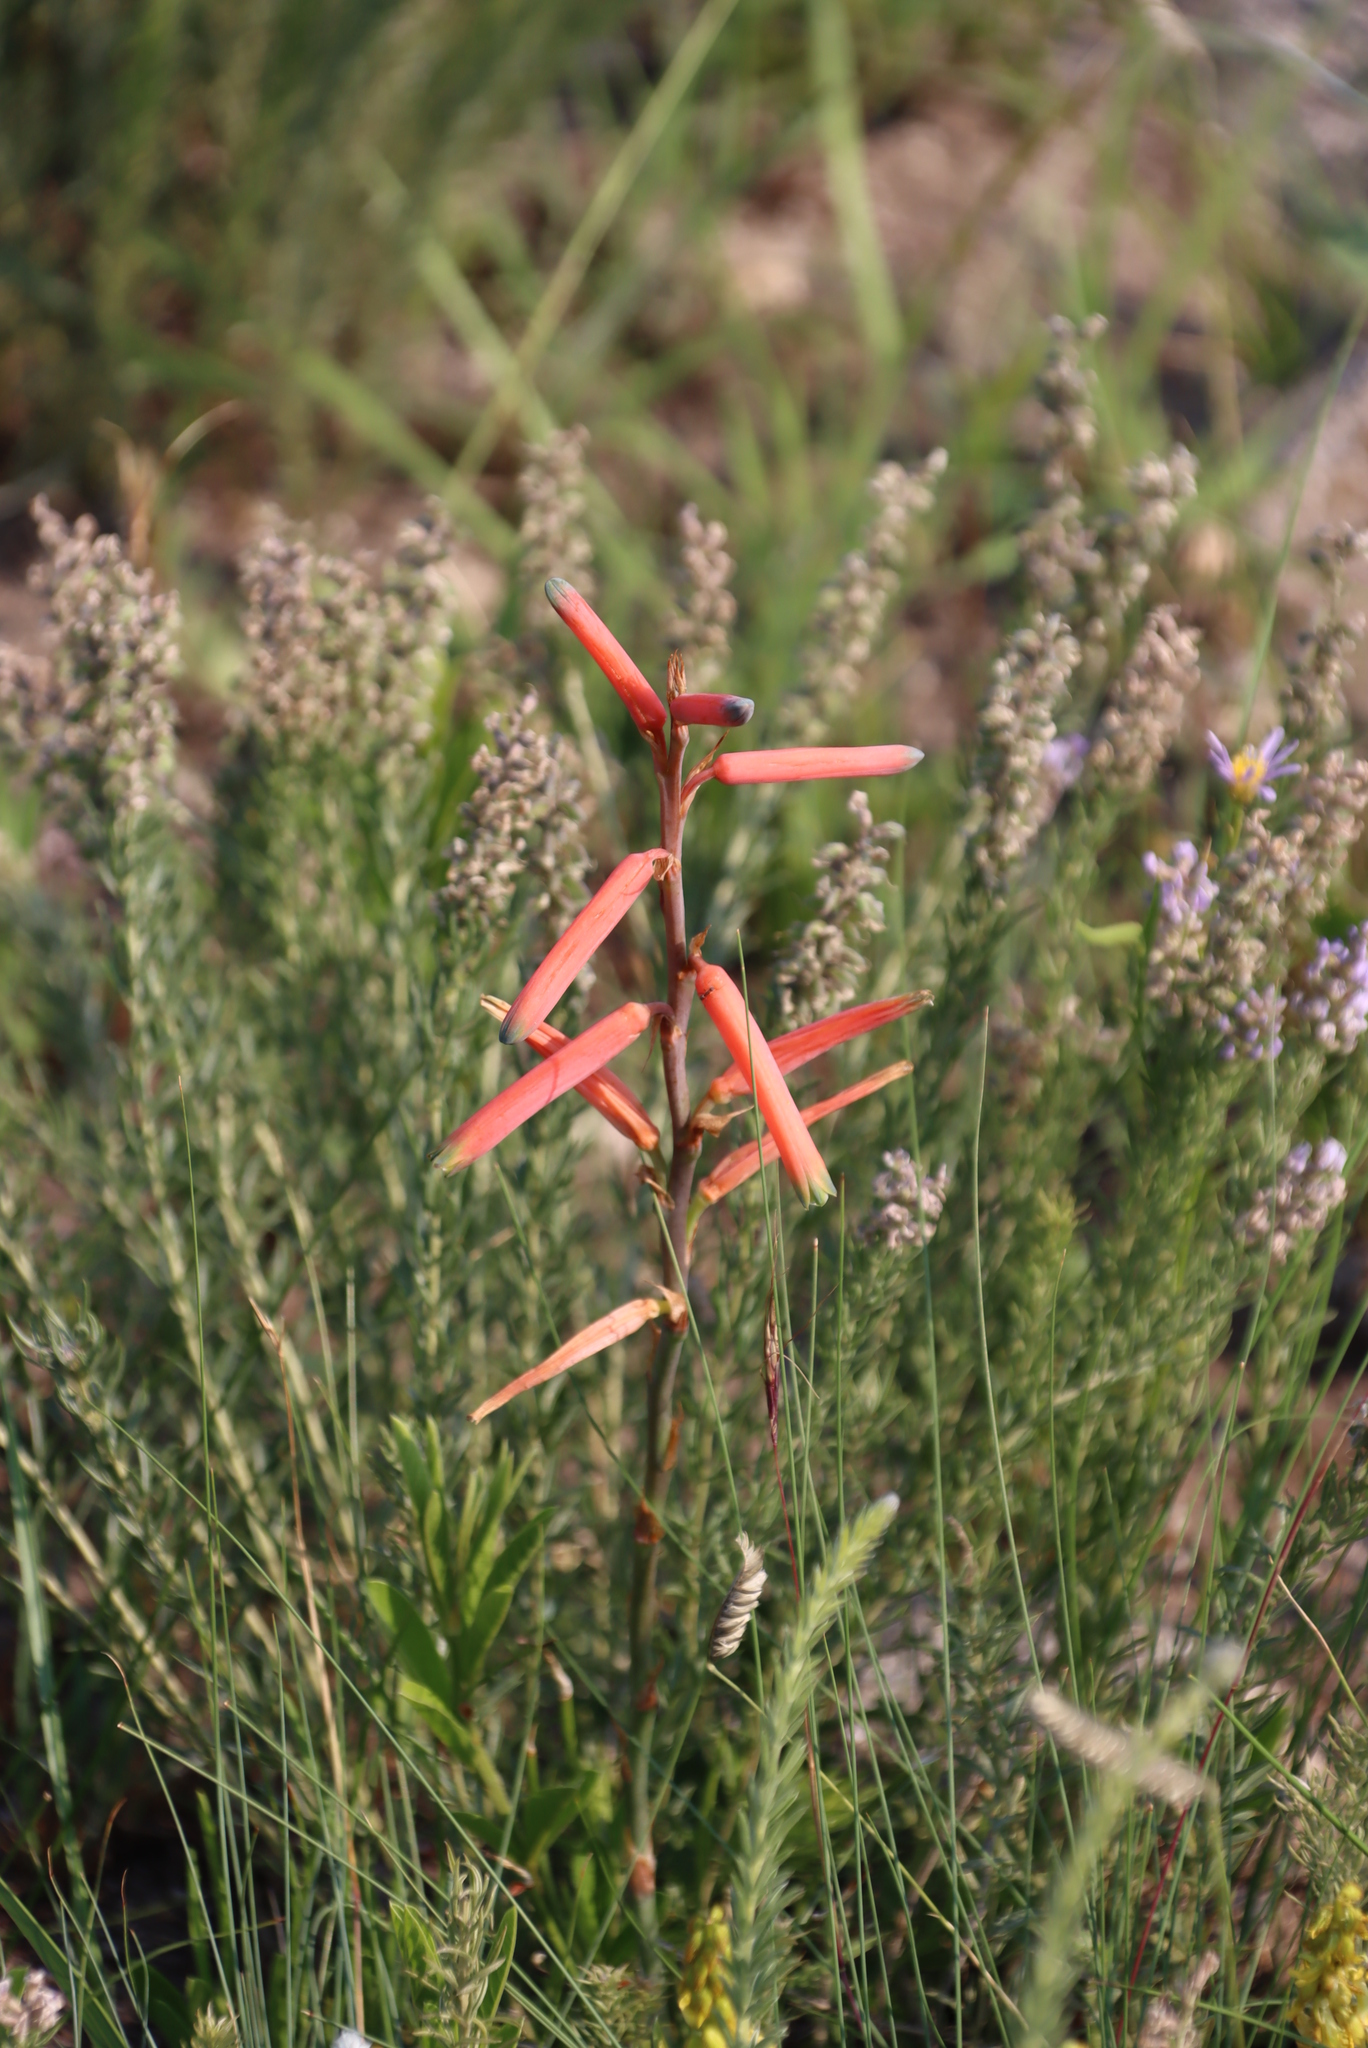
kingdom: Plantae
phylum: Tracheophyta
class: Liliopsida
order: Asparagales
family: Asphodelaceae
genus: Aloe
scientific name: Aloe kniphofioides
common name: Grass aloe
